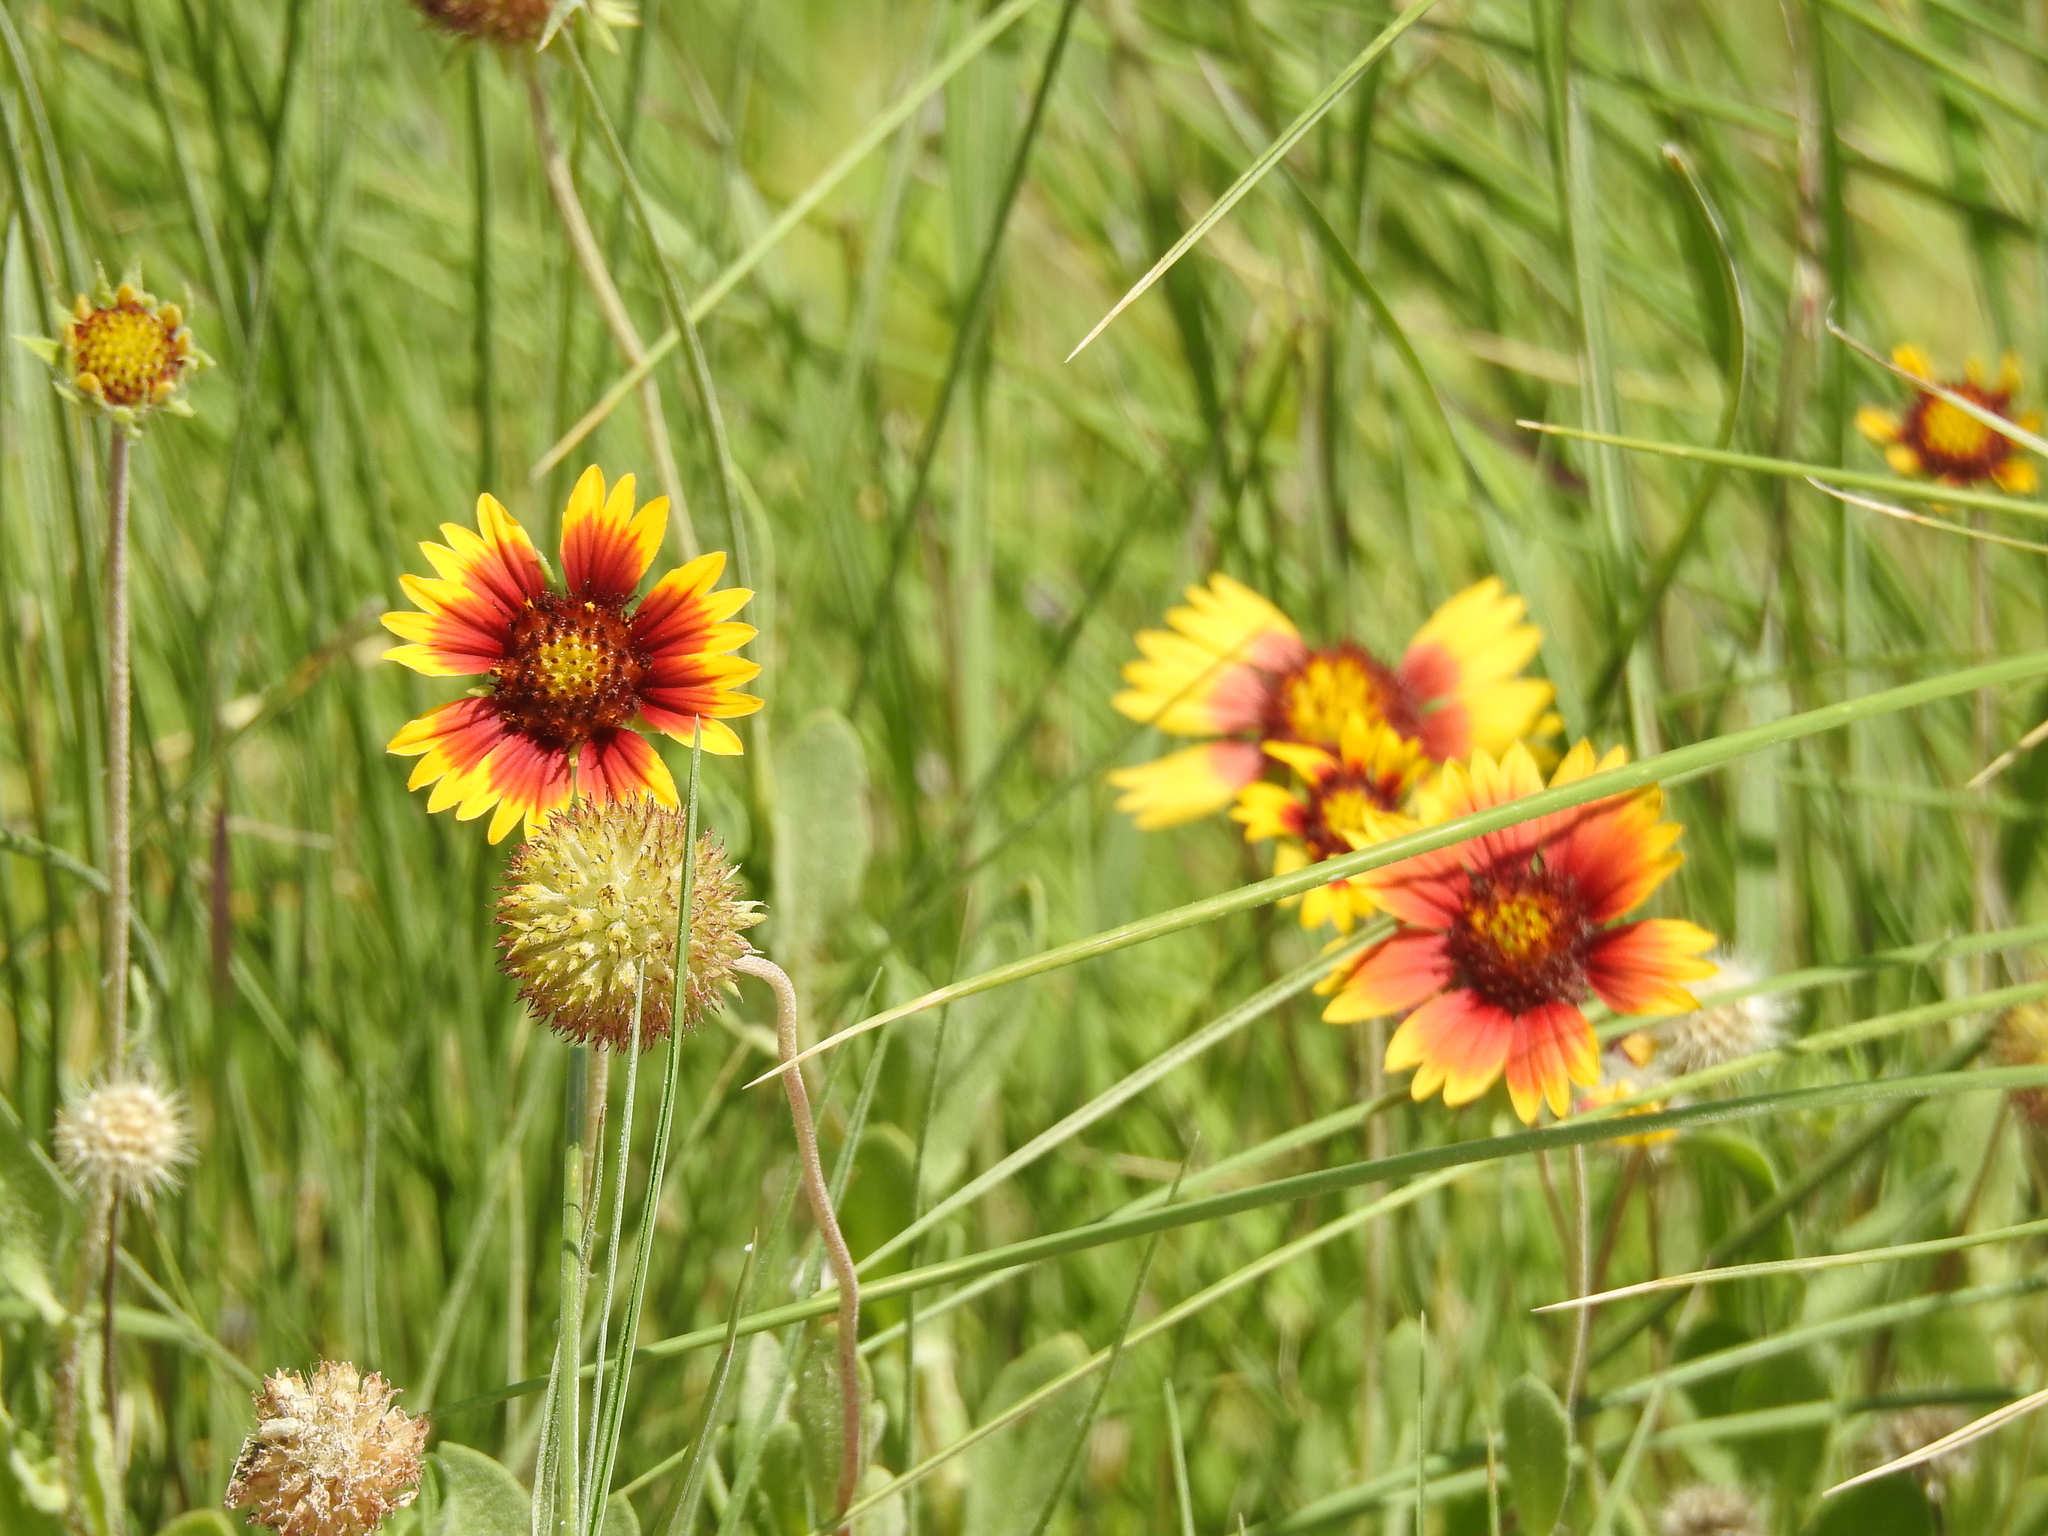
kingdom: Plantae
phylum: Tracheophyta
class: Magnoliopsida
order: Asterales
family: Asteraceae
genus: Gaillardia
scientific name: Gaillardia pulchella
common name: Firewheel
